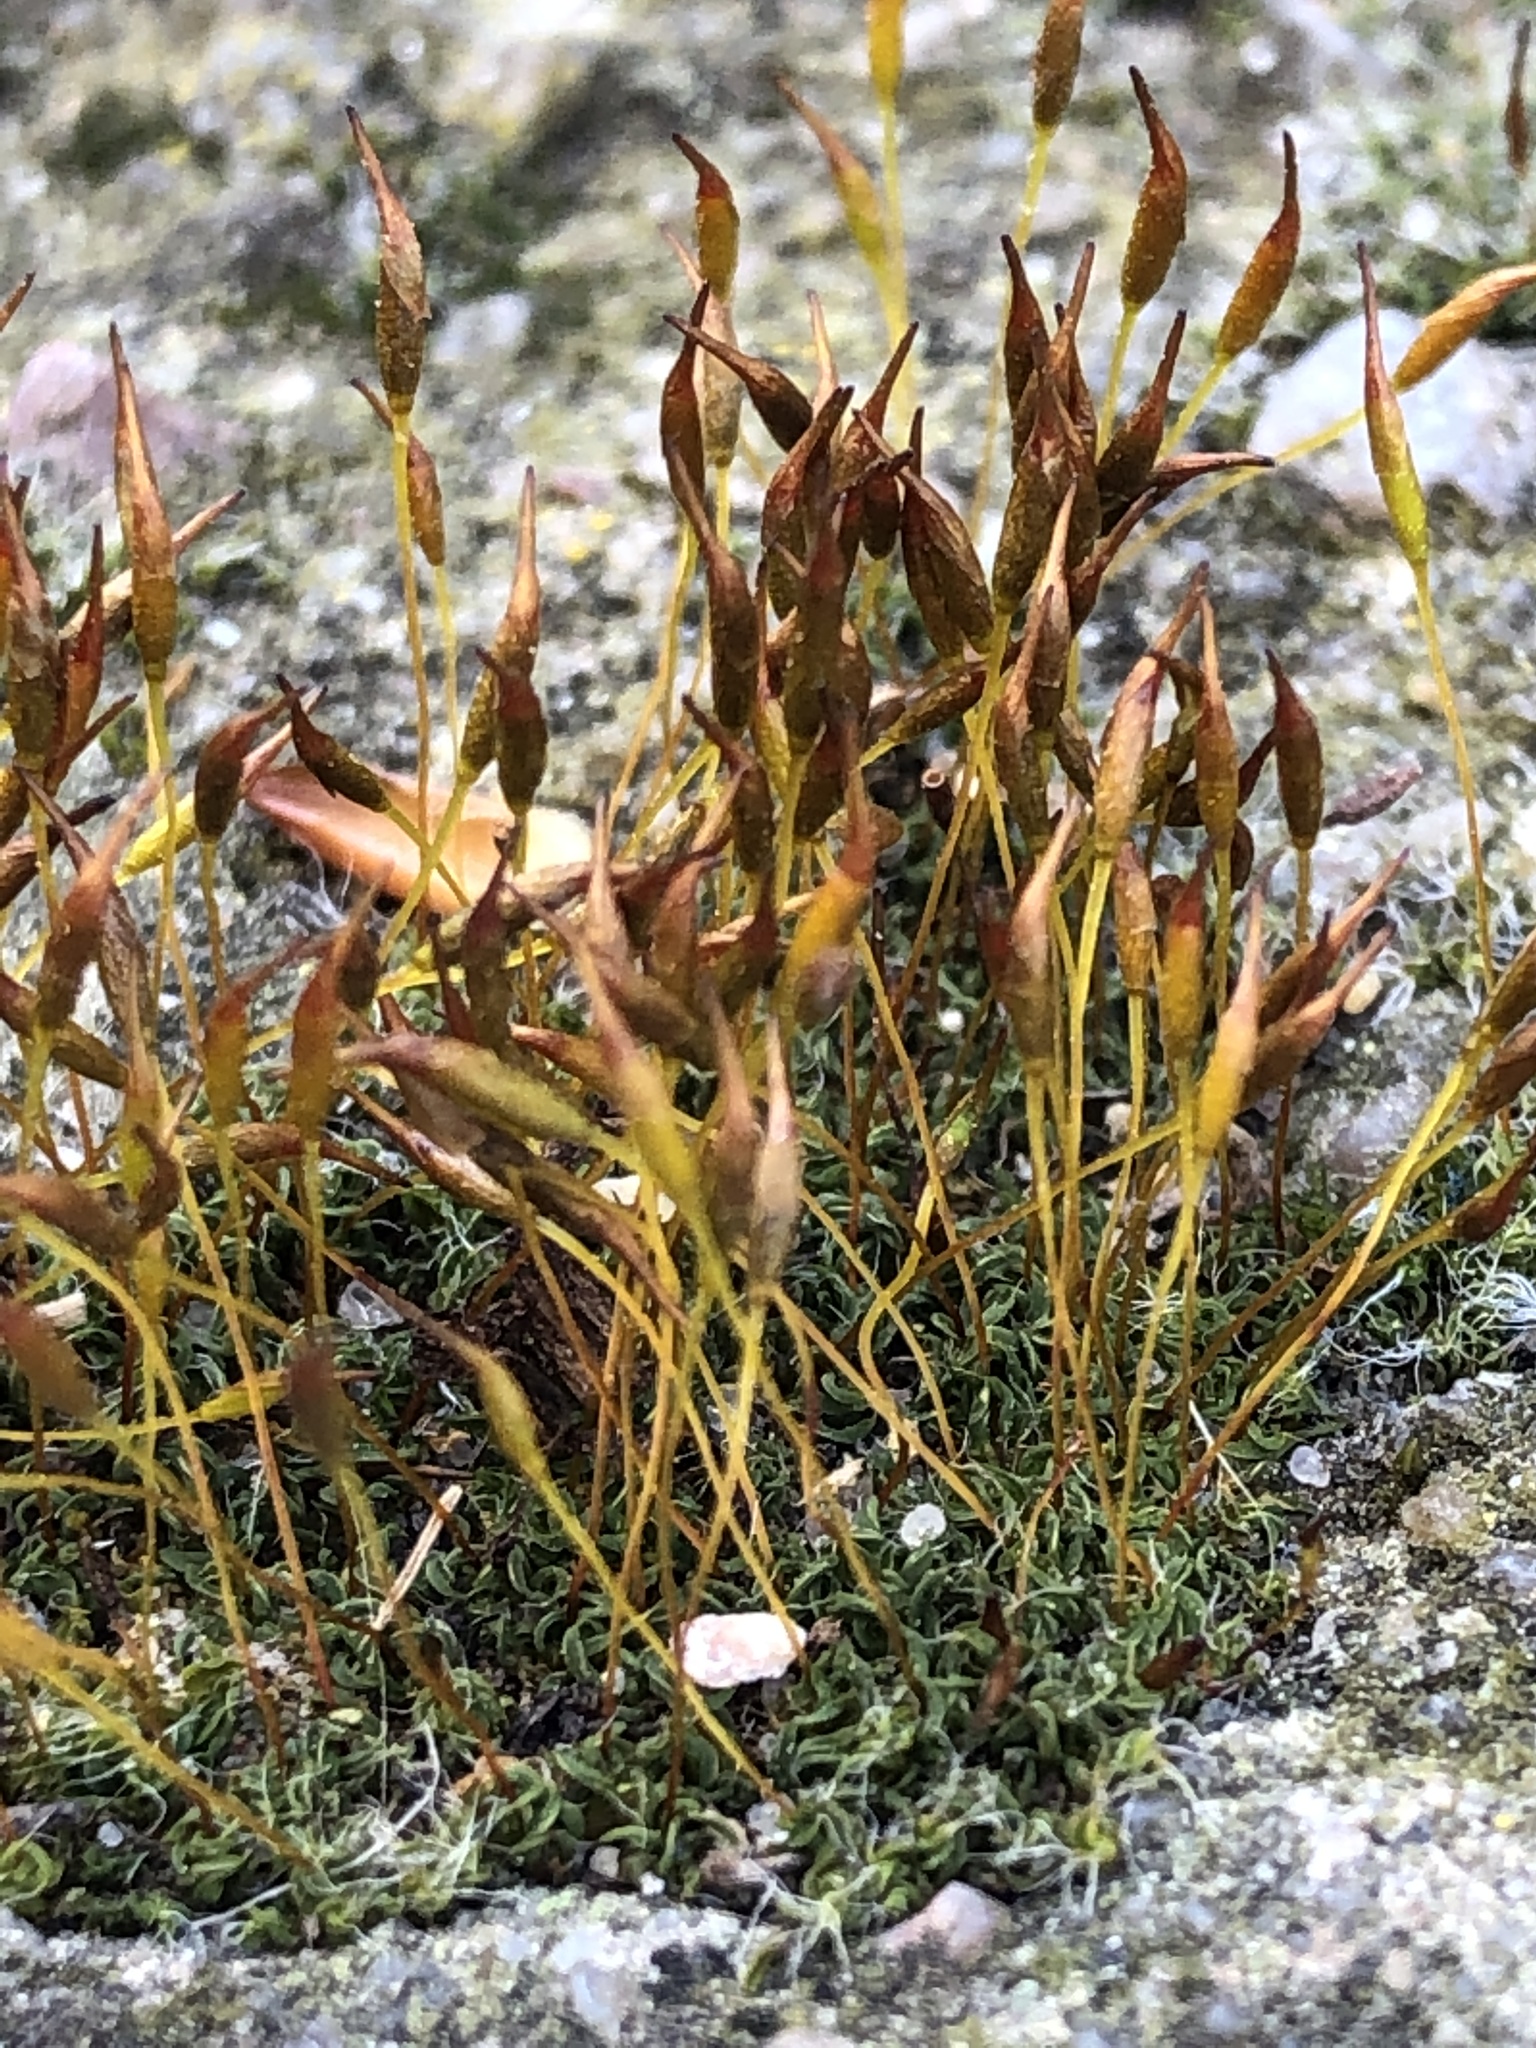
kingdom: Plantae
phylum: Bryophyta
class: Bryopsida
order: Pottiales
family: Pottiaceae
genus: Tortula
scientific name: Tortula muralis
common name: Wall screw-moss
